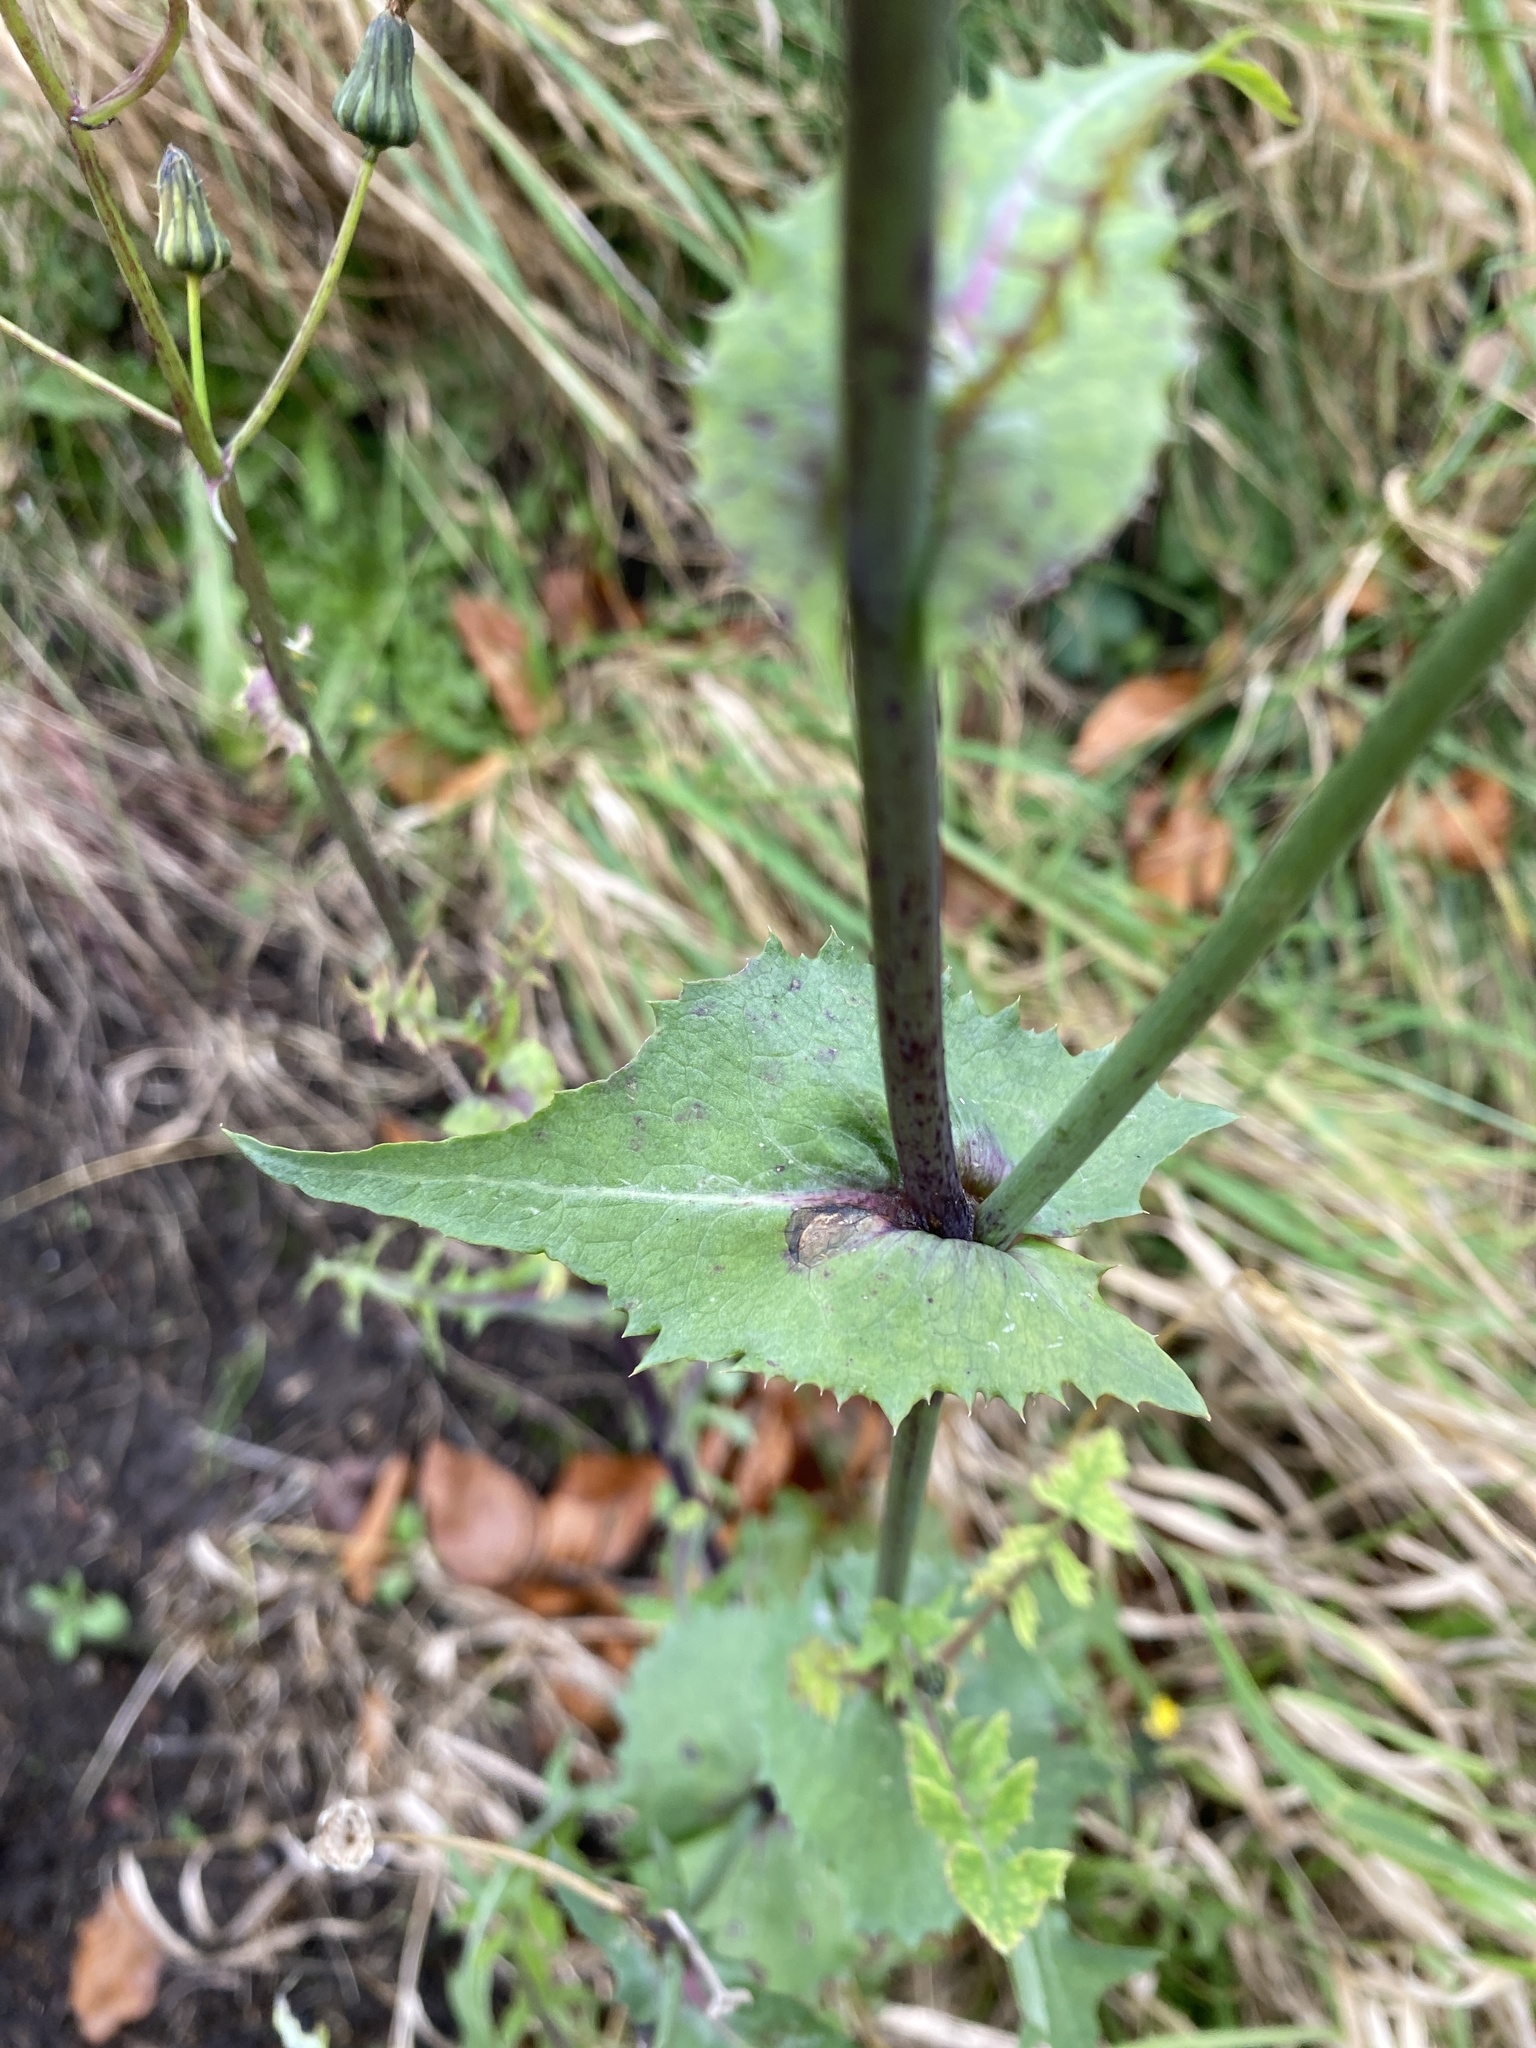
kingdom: Plantae
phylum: Tracheophyta
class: Magnoliopsida
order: Asterales
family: Asteraceae
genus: Sonchus
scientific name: Sonchus oleraceus
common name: Common sowthistle
